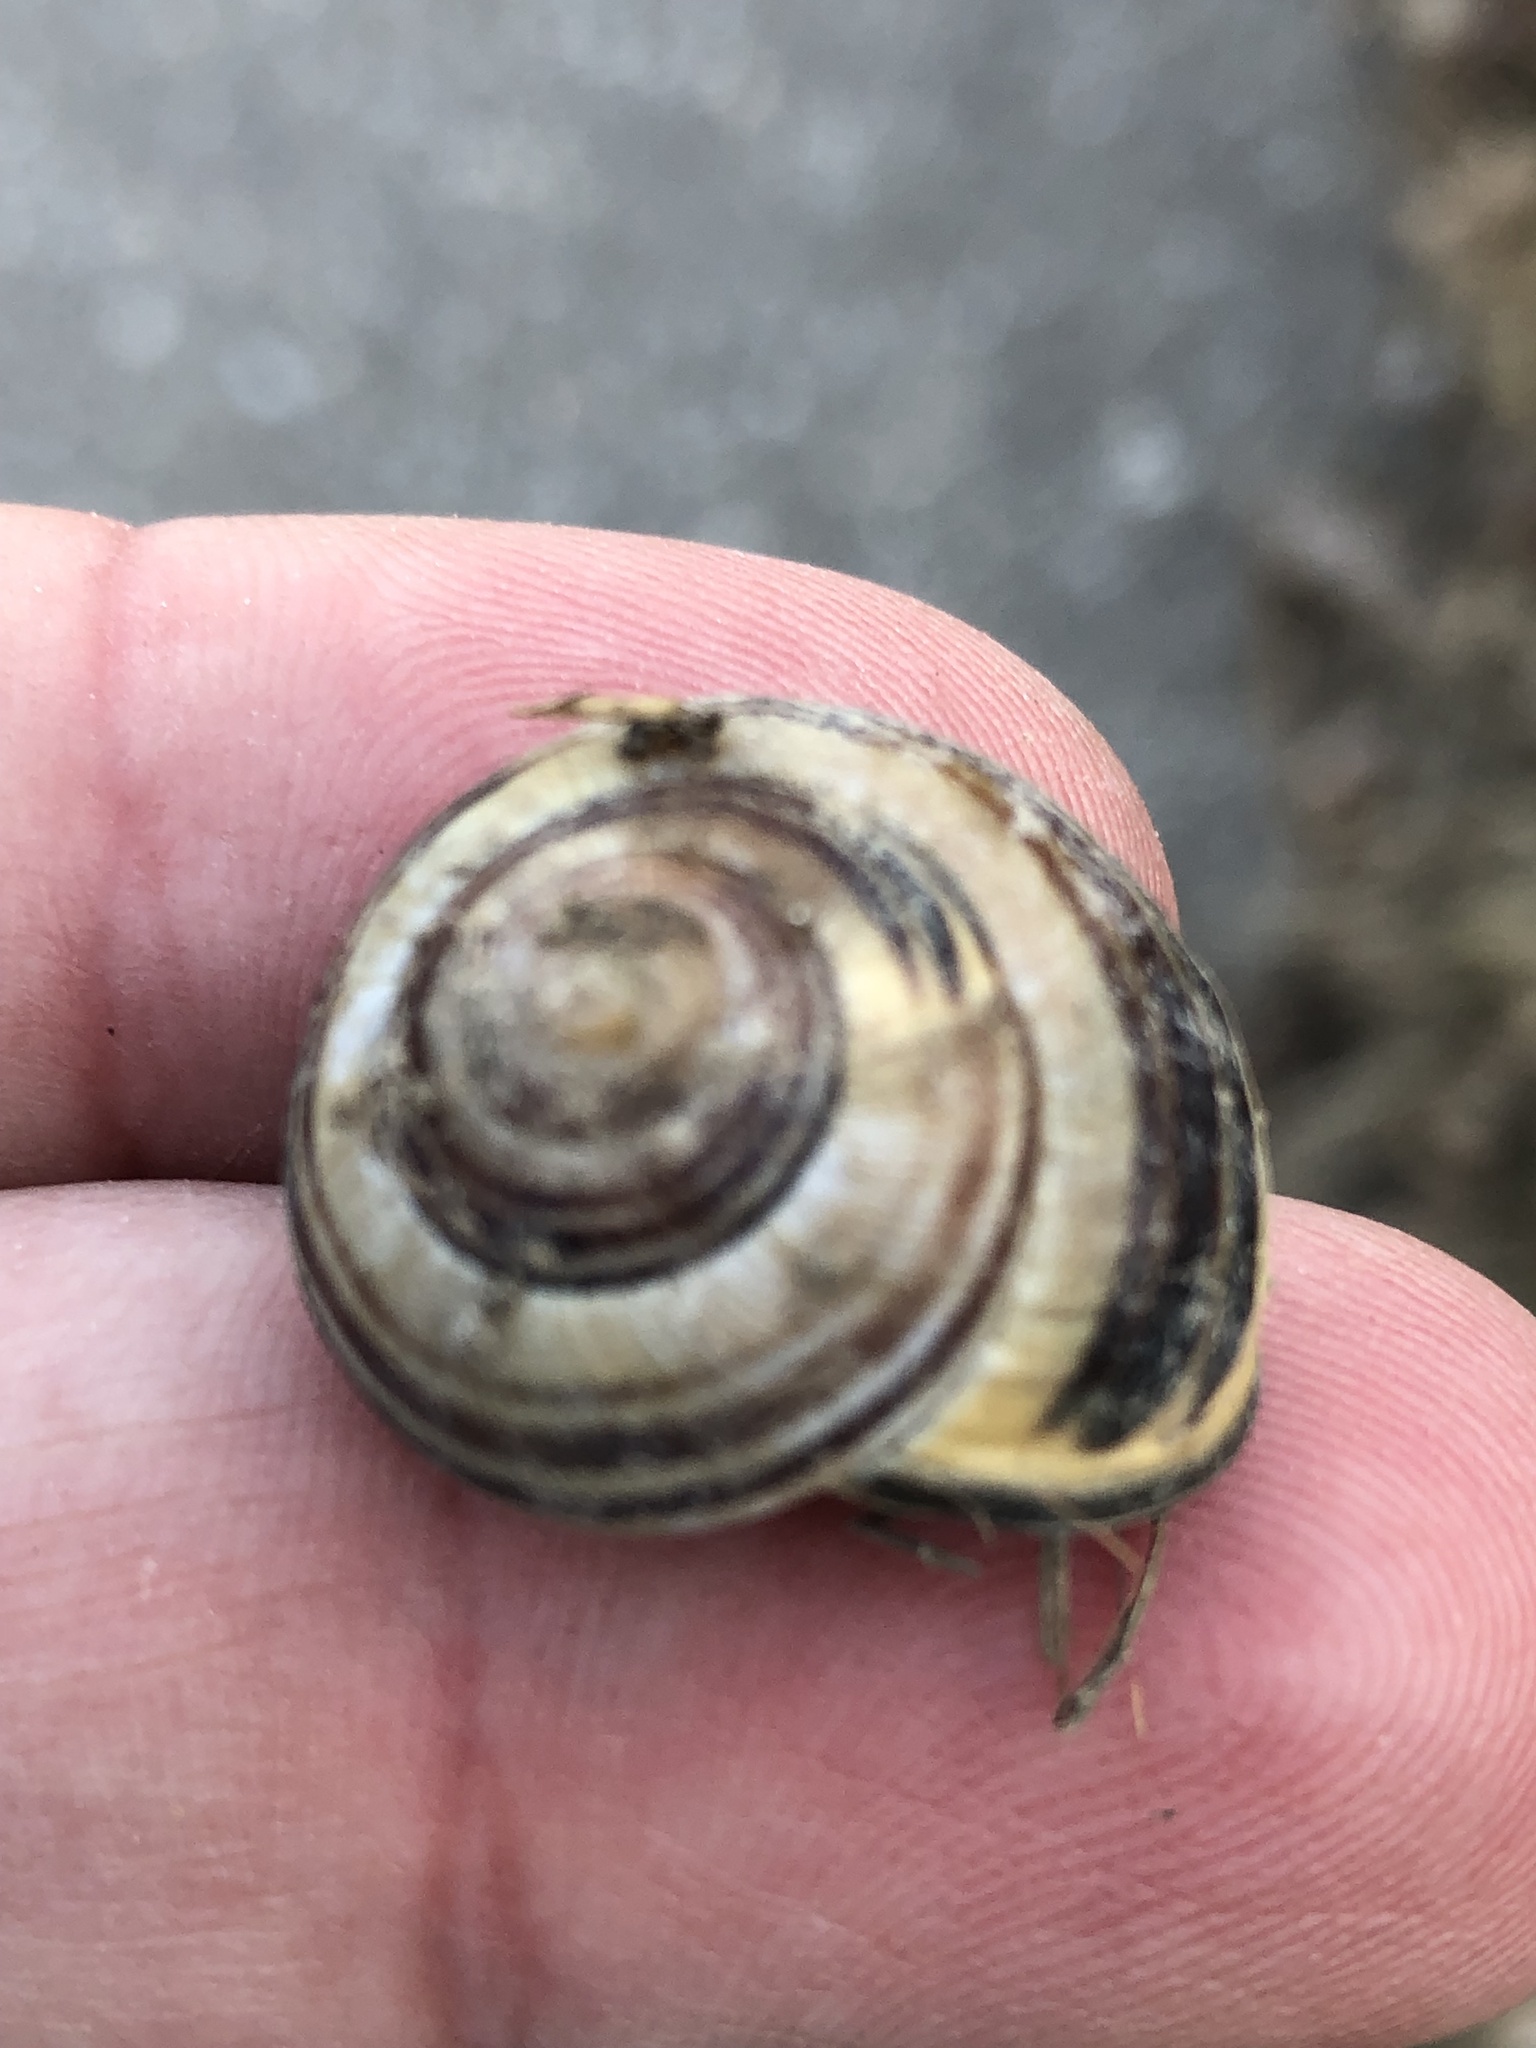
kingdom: Animalia
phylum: Mollusca
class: Gastropoda
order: Stylommatophora
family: Helicidae
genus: Cepaea
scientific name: Cepaea nemoralis
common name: Grovesnail
